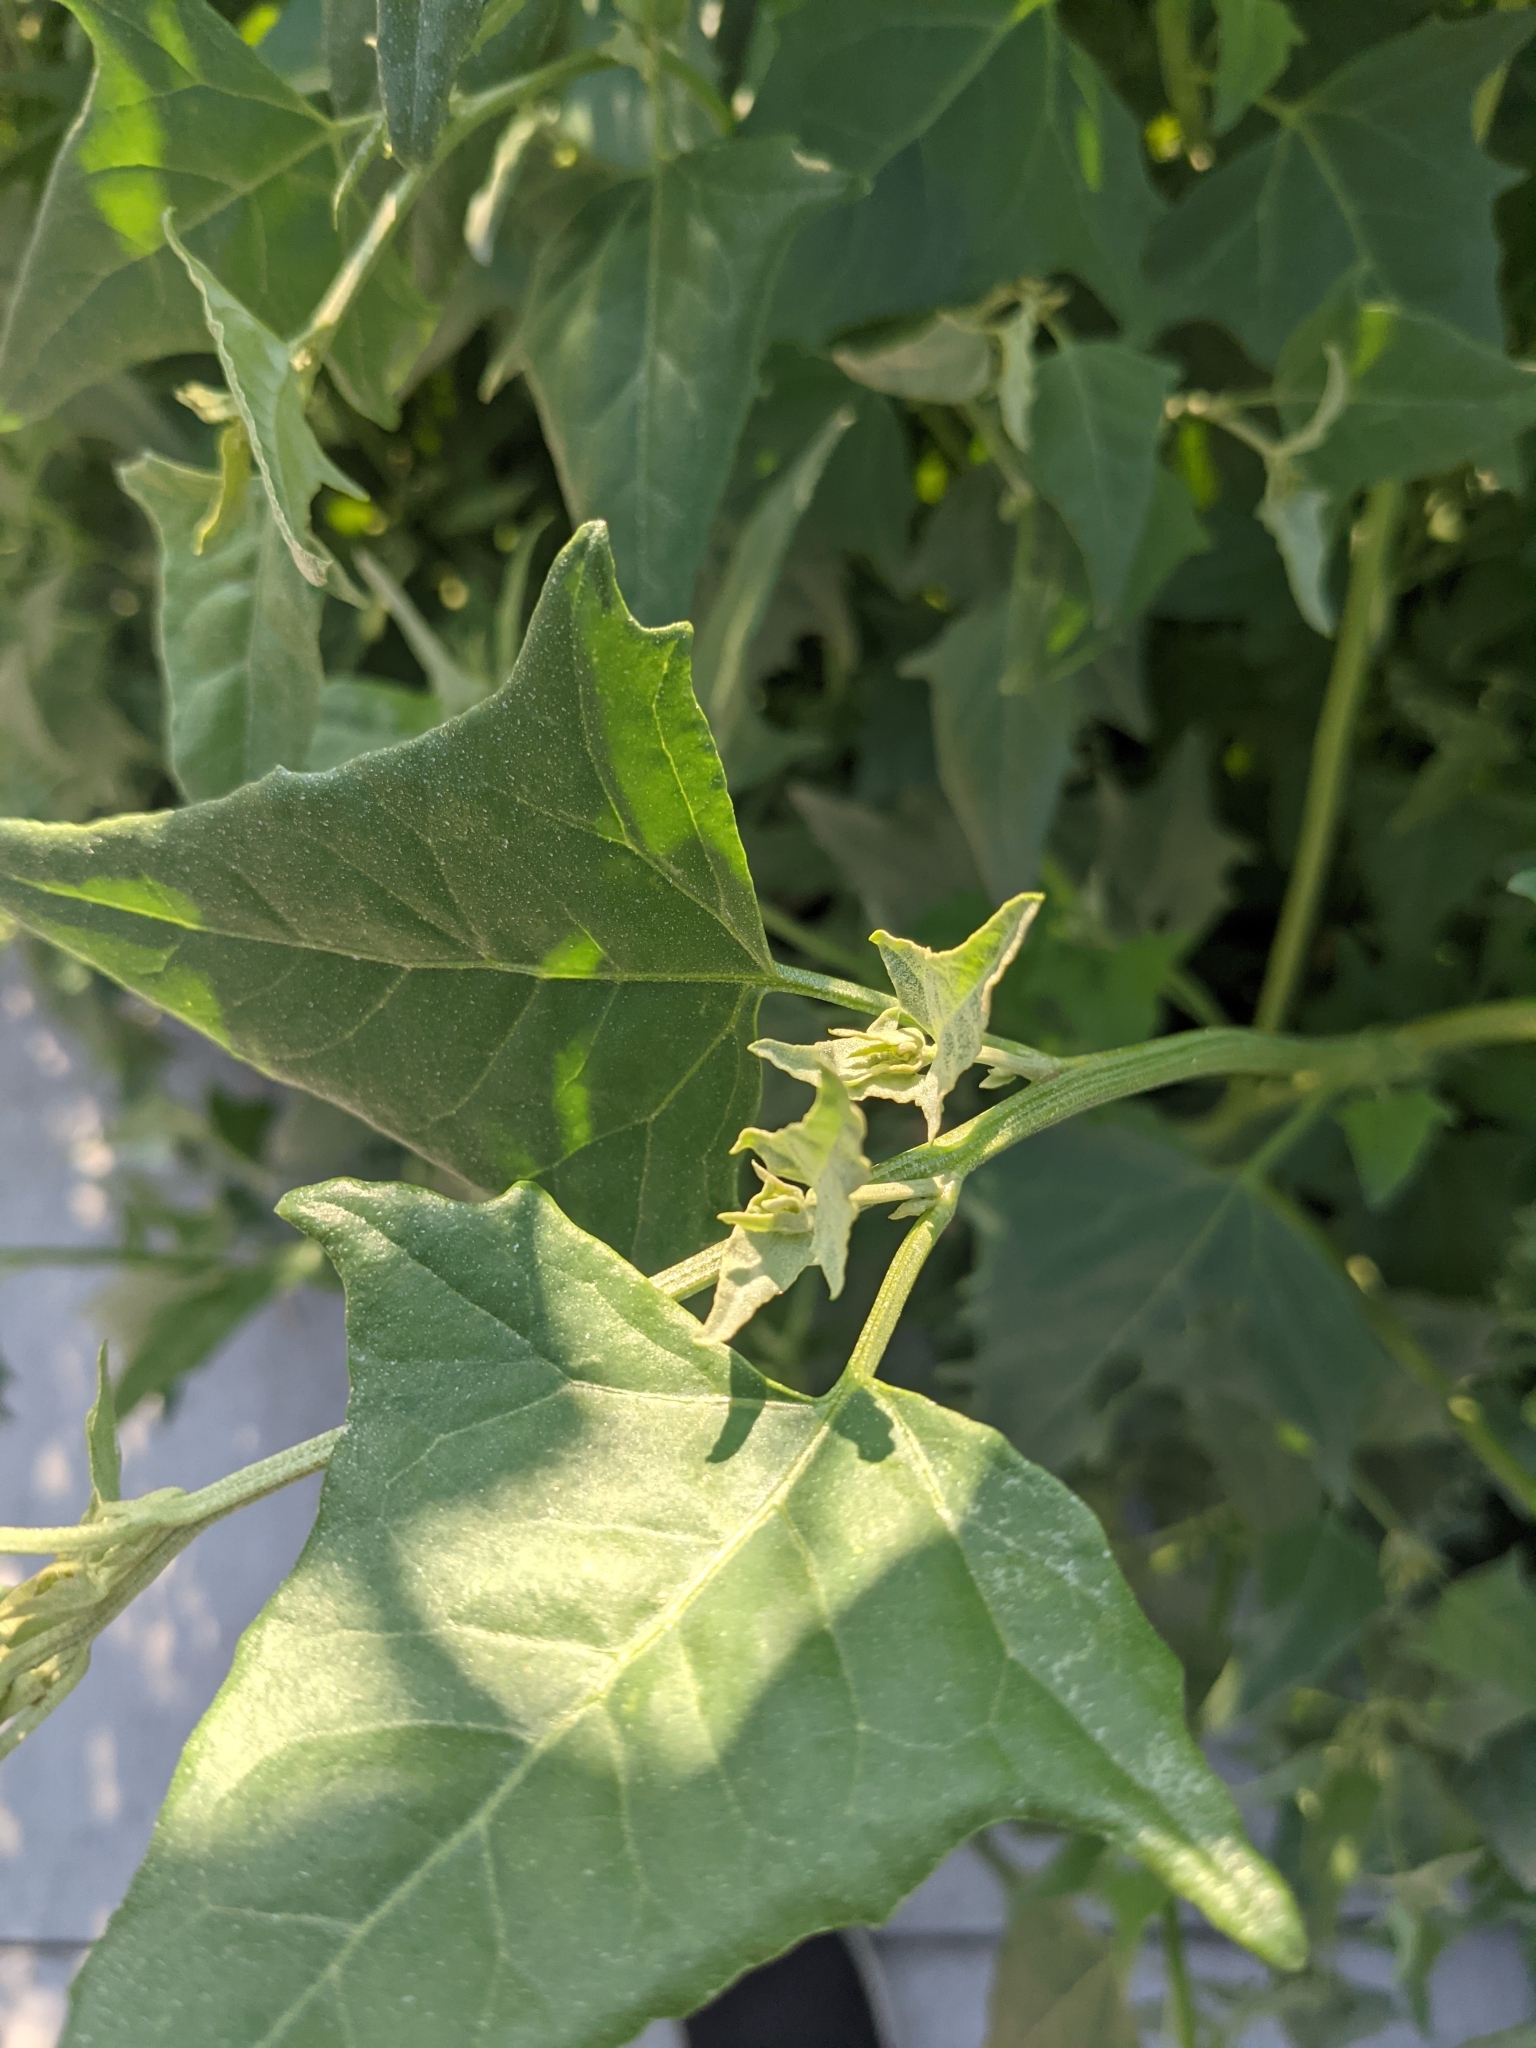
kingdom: Plantae
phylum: Tracheophyta
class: Magnoliopsida
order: Caryophyllales
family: Amaranthaceae
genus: Atriplex
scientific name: Atriplex prostrata
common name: Spear-leaved orache
